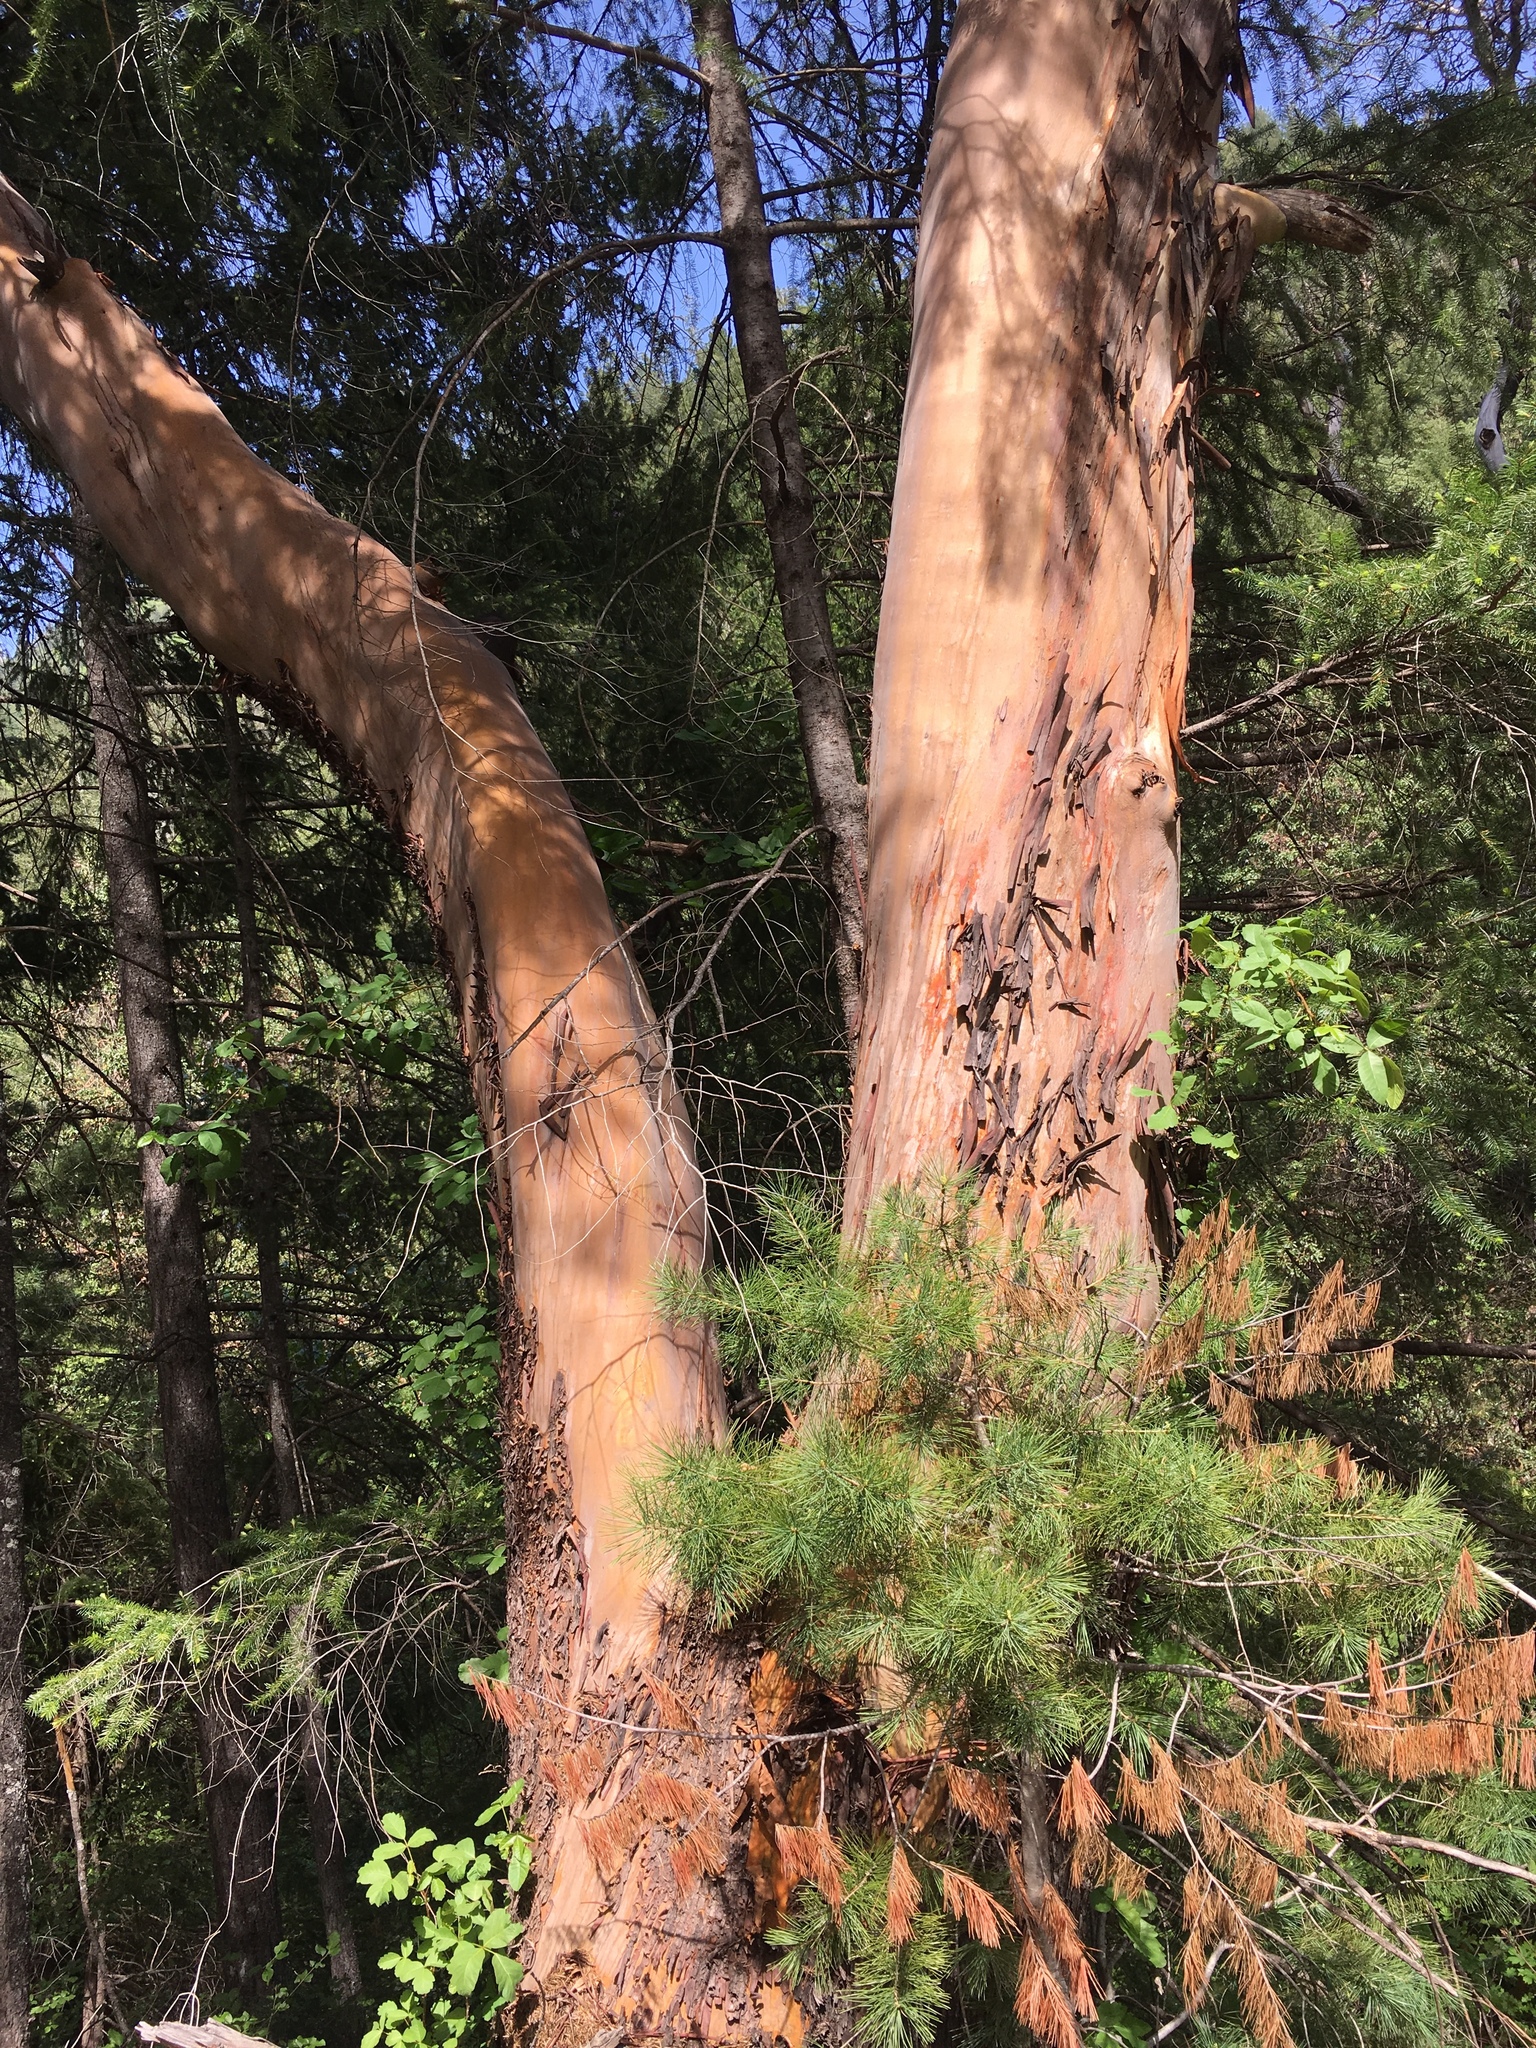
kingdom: Plantae
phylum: Tracheophyta
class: Magnoliopsida
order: Ericales
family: Ericaceae
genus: Arbutus
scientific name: Arbutus menziesii
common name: Pacific madrone
